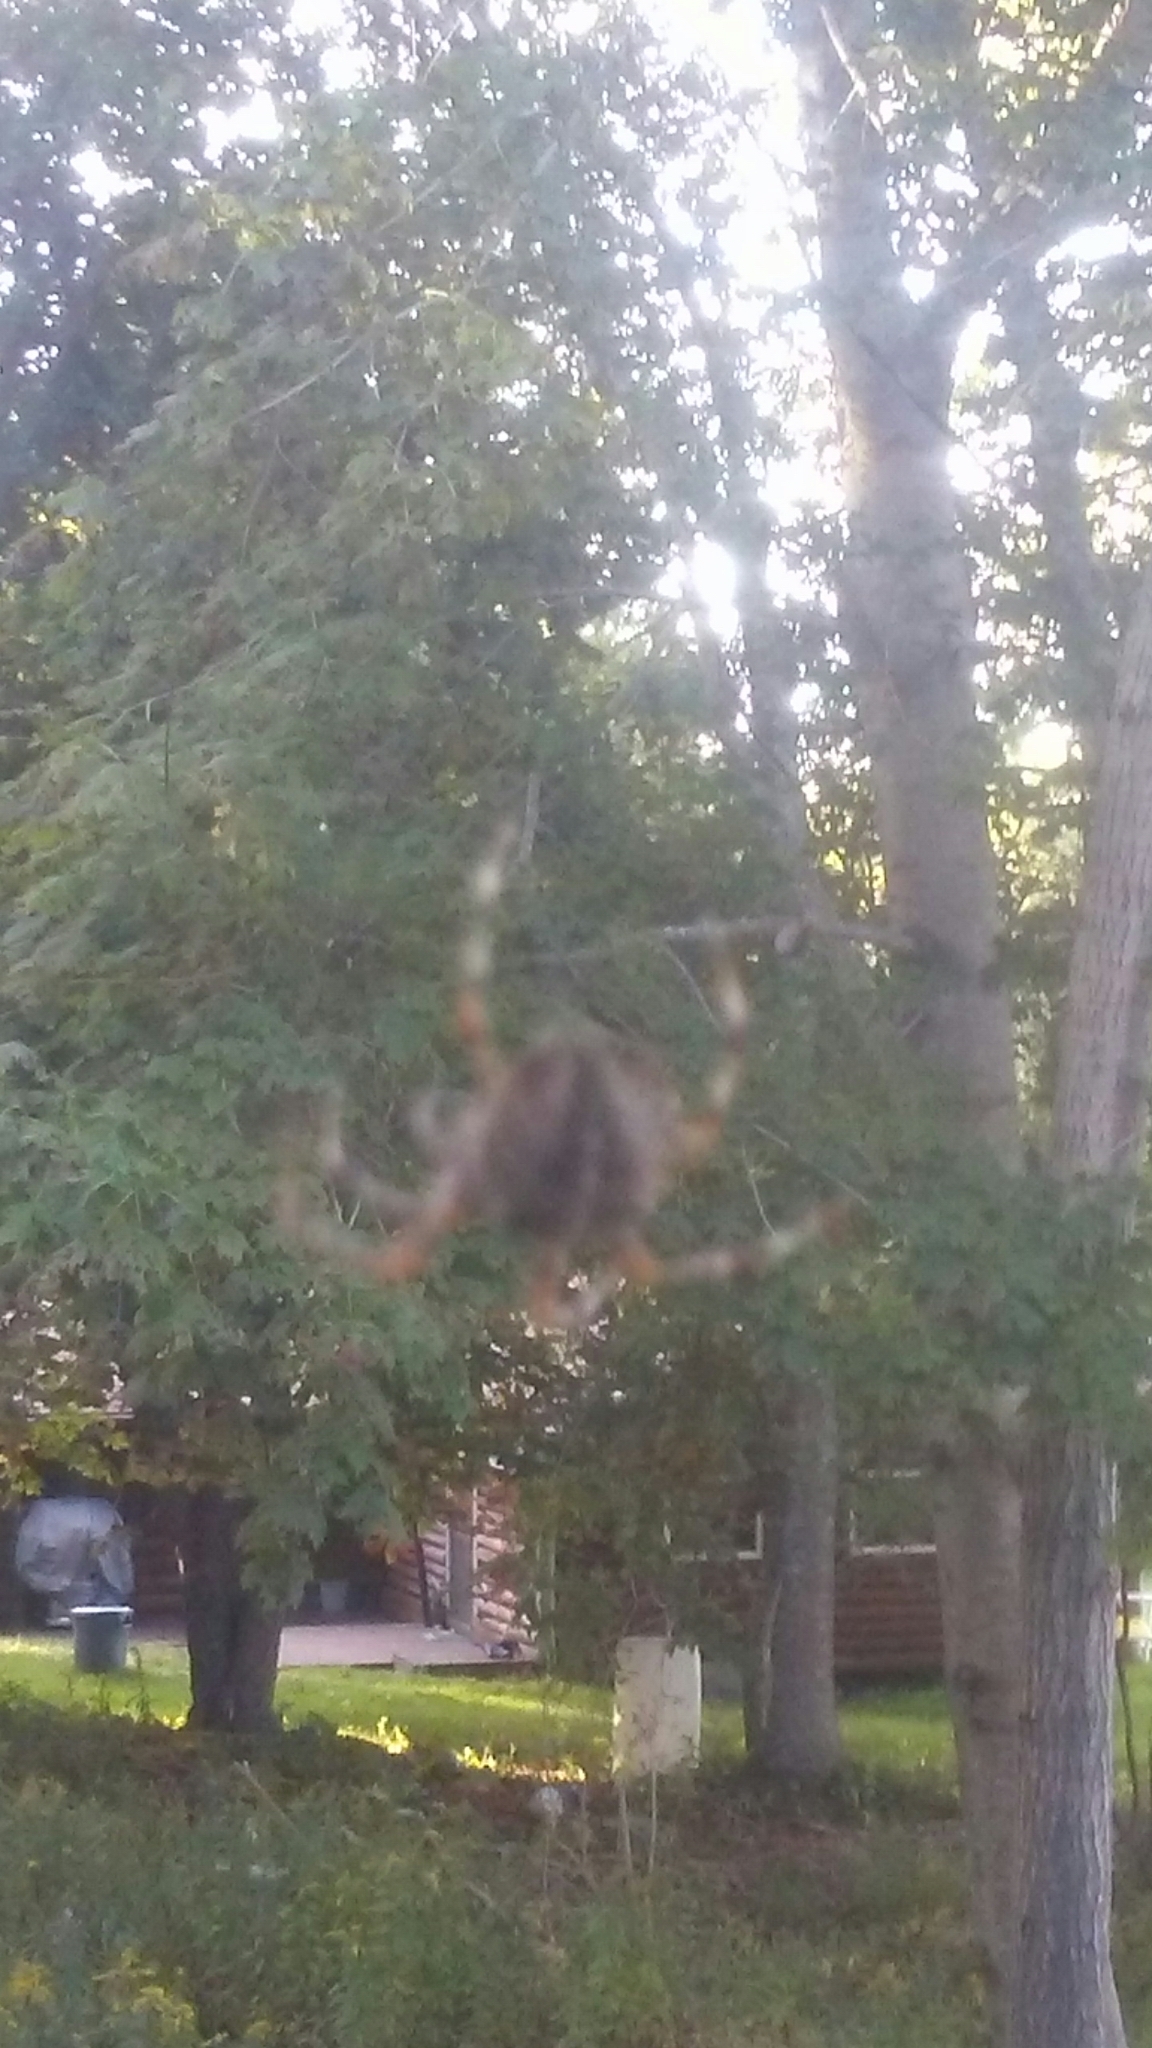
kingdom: Animalia
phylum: Arthropoda
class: Arachnida
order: Araneae
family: Araneidae
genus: Araneus
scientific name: Araneus diadematus
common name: Cross orbweaver
